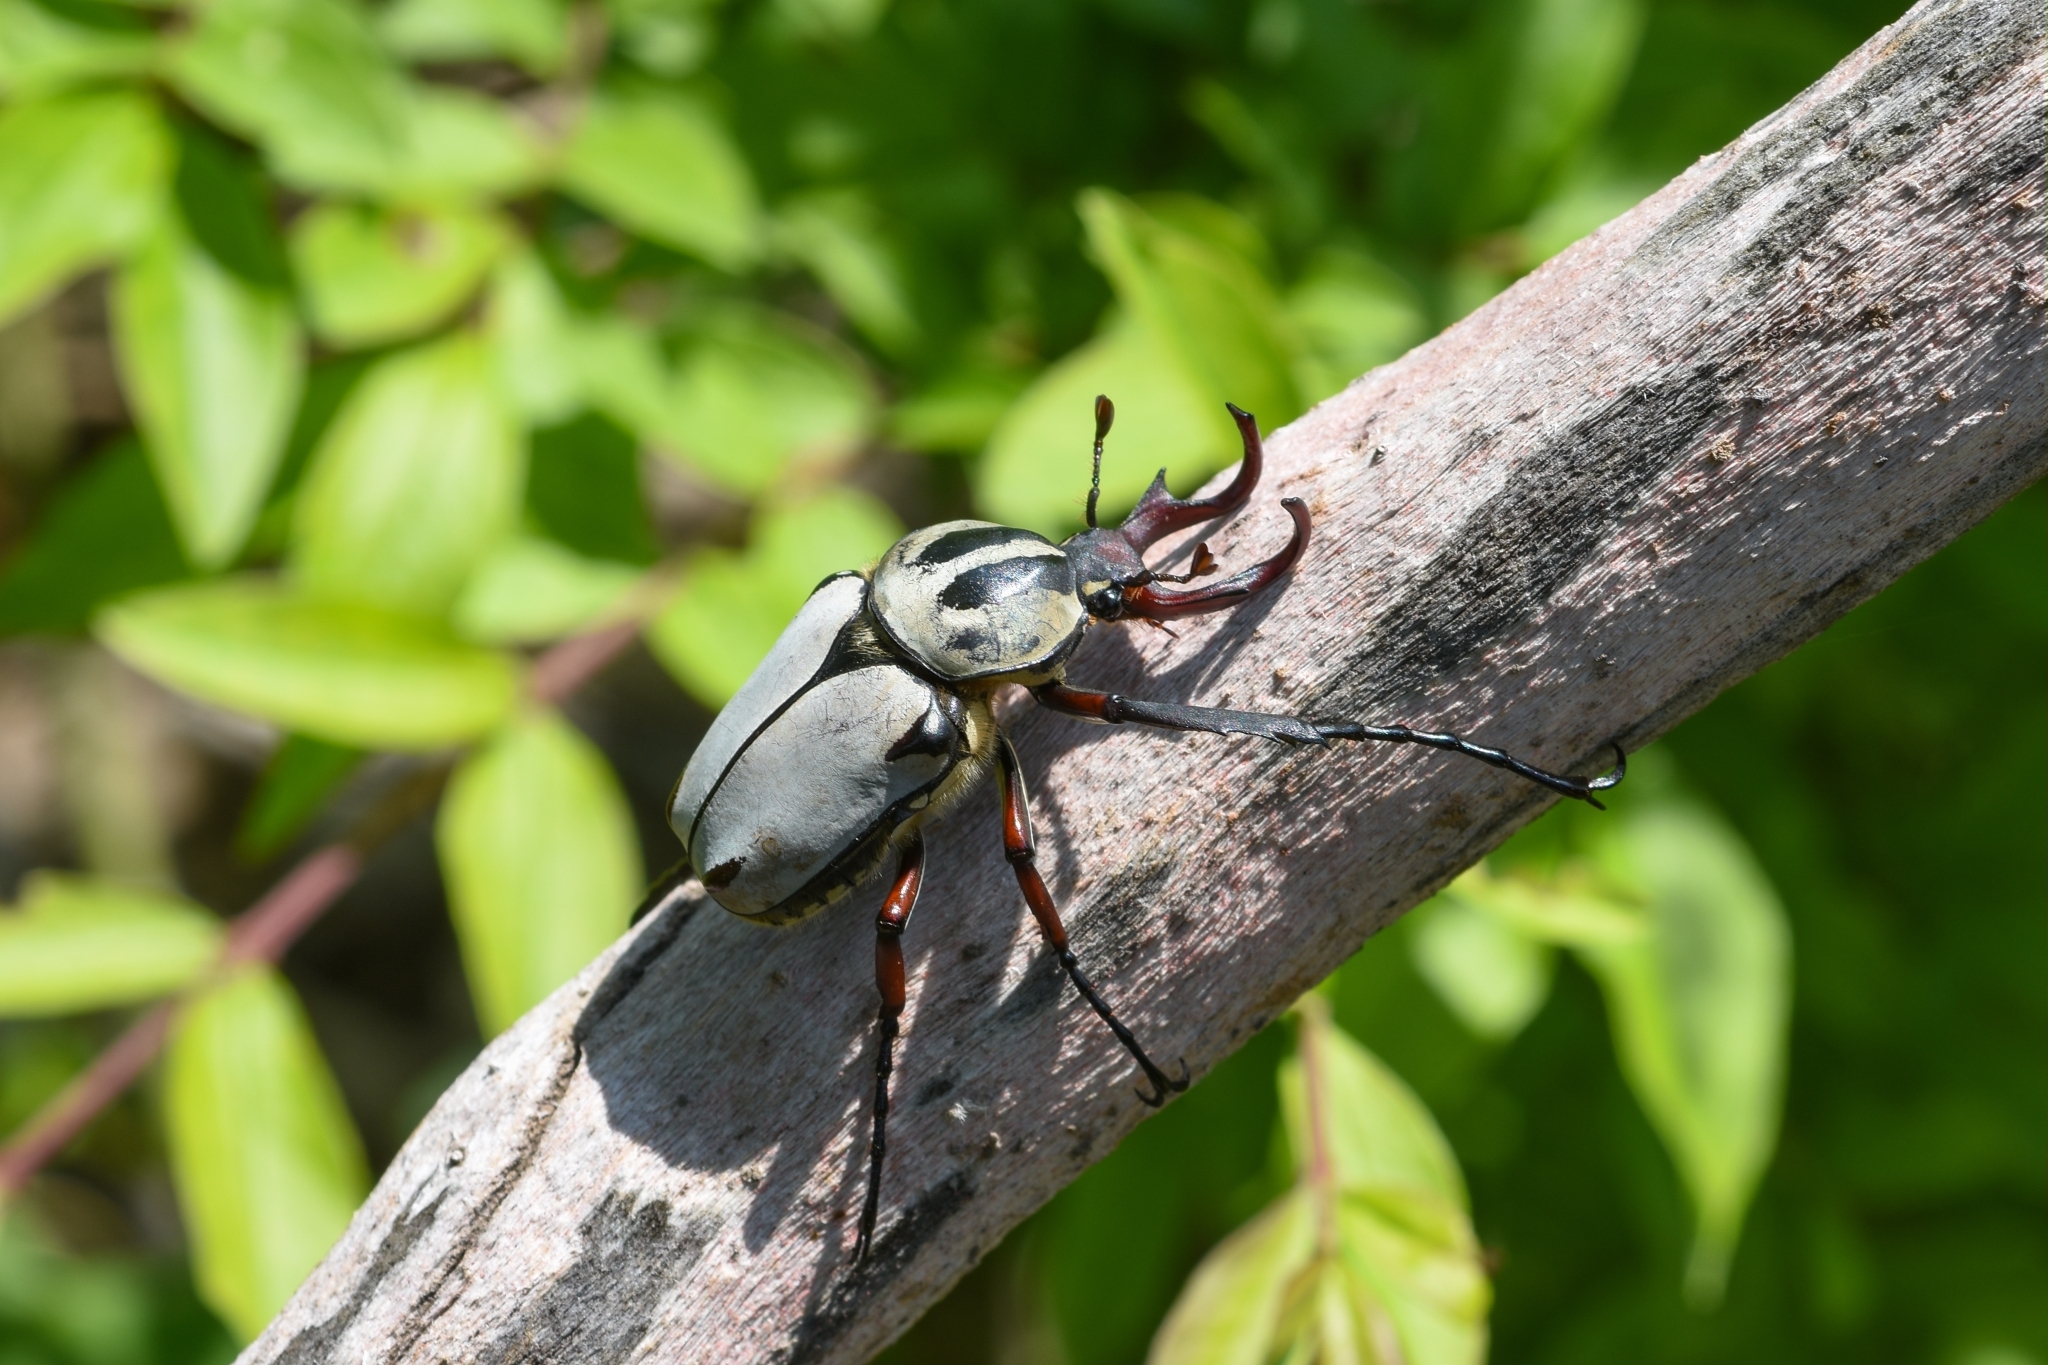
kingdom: Animalia
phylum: Arthropoda
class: Insecta
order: Coleoptera
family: Scarabaeidae
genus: Dicronocephalus
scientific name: Dicronocephalus adamsi
